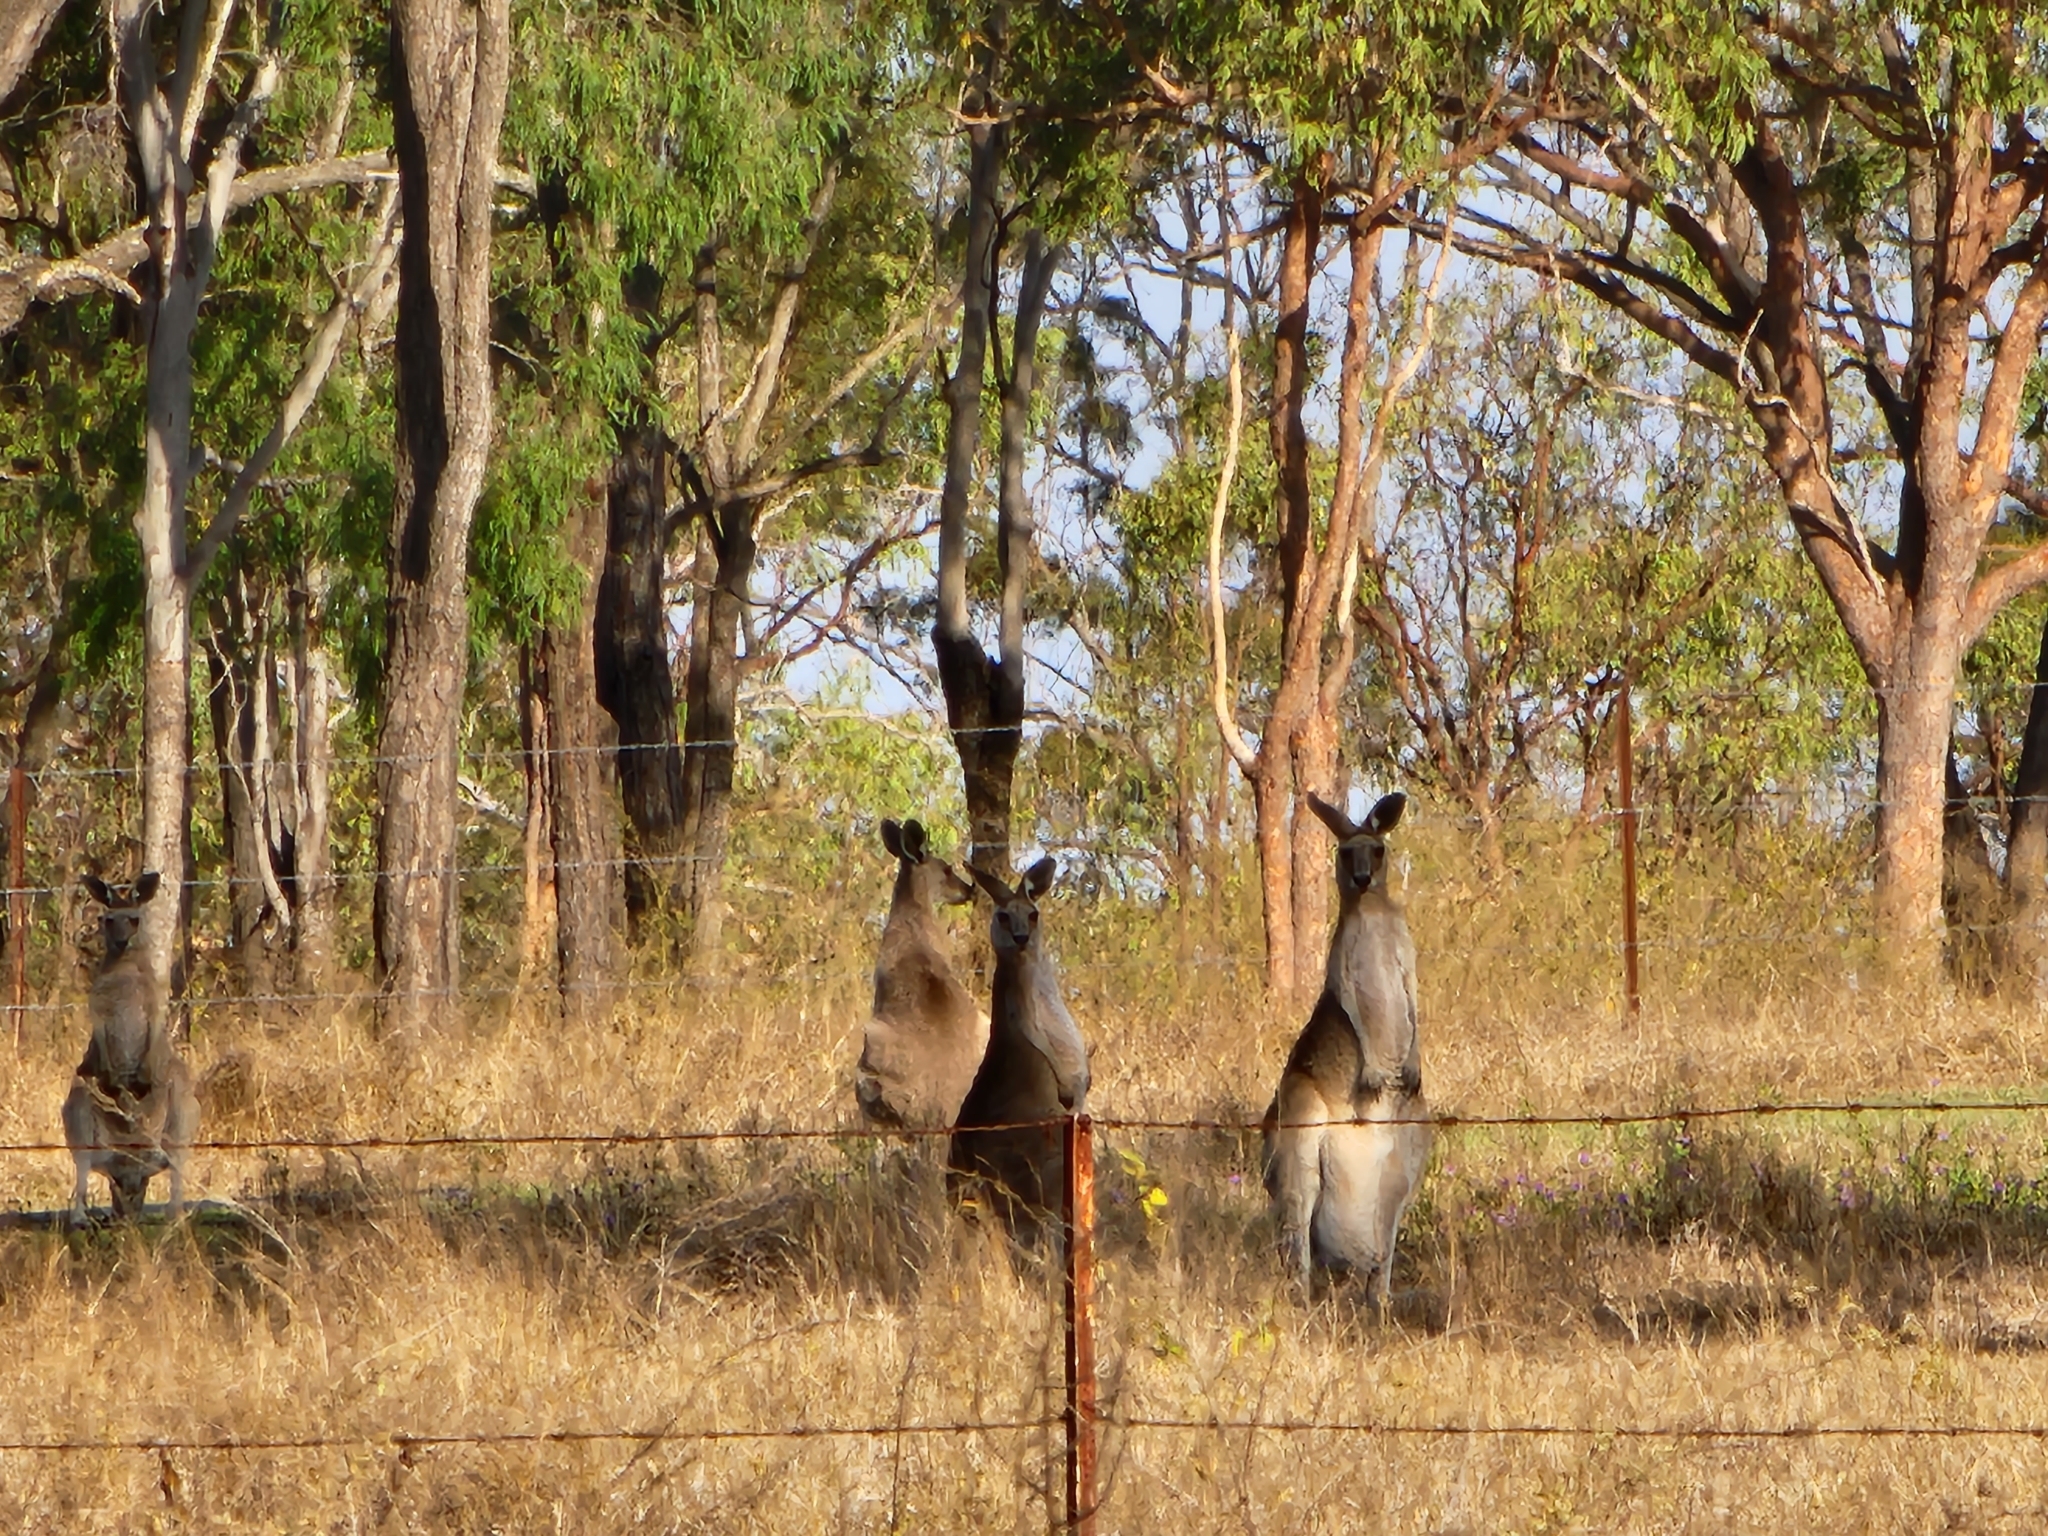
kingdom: Animalia
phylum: Chordata
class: Mammalia
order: Diprotodontia
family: Macropodidae
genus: Macropus
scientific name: Macropus giganteus
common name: Eastern grey kangaroo
